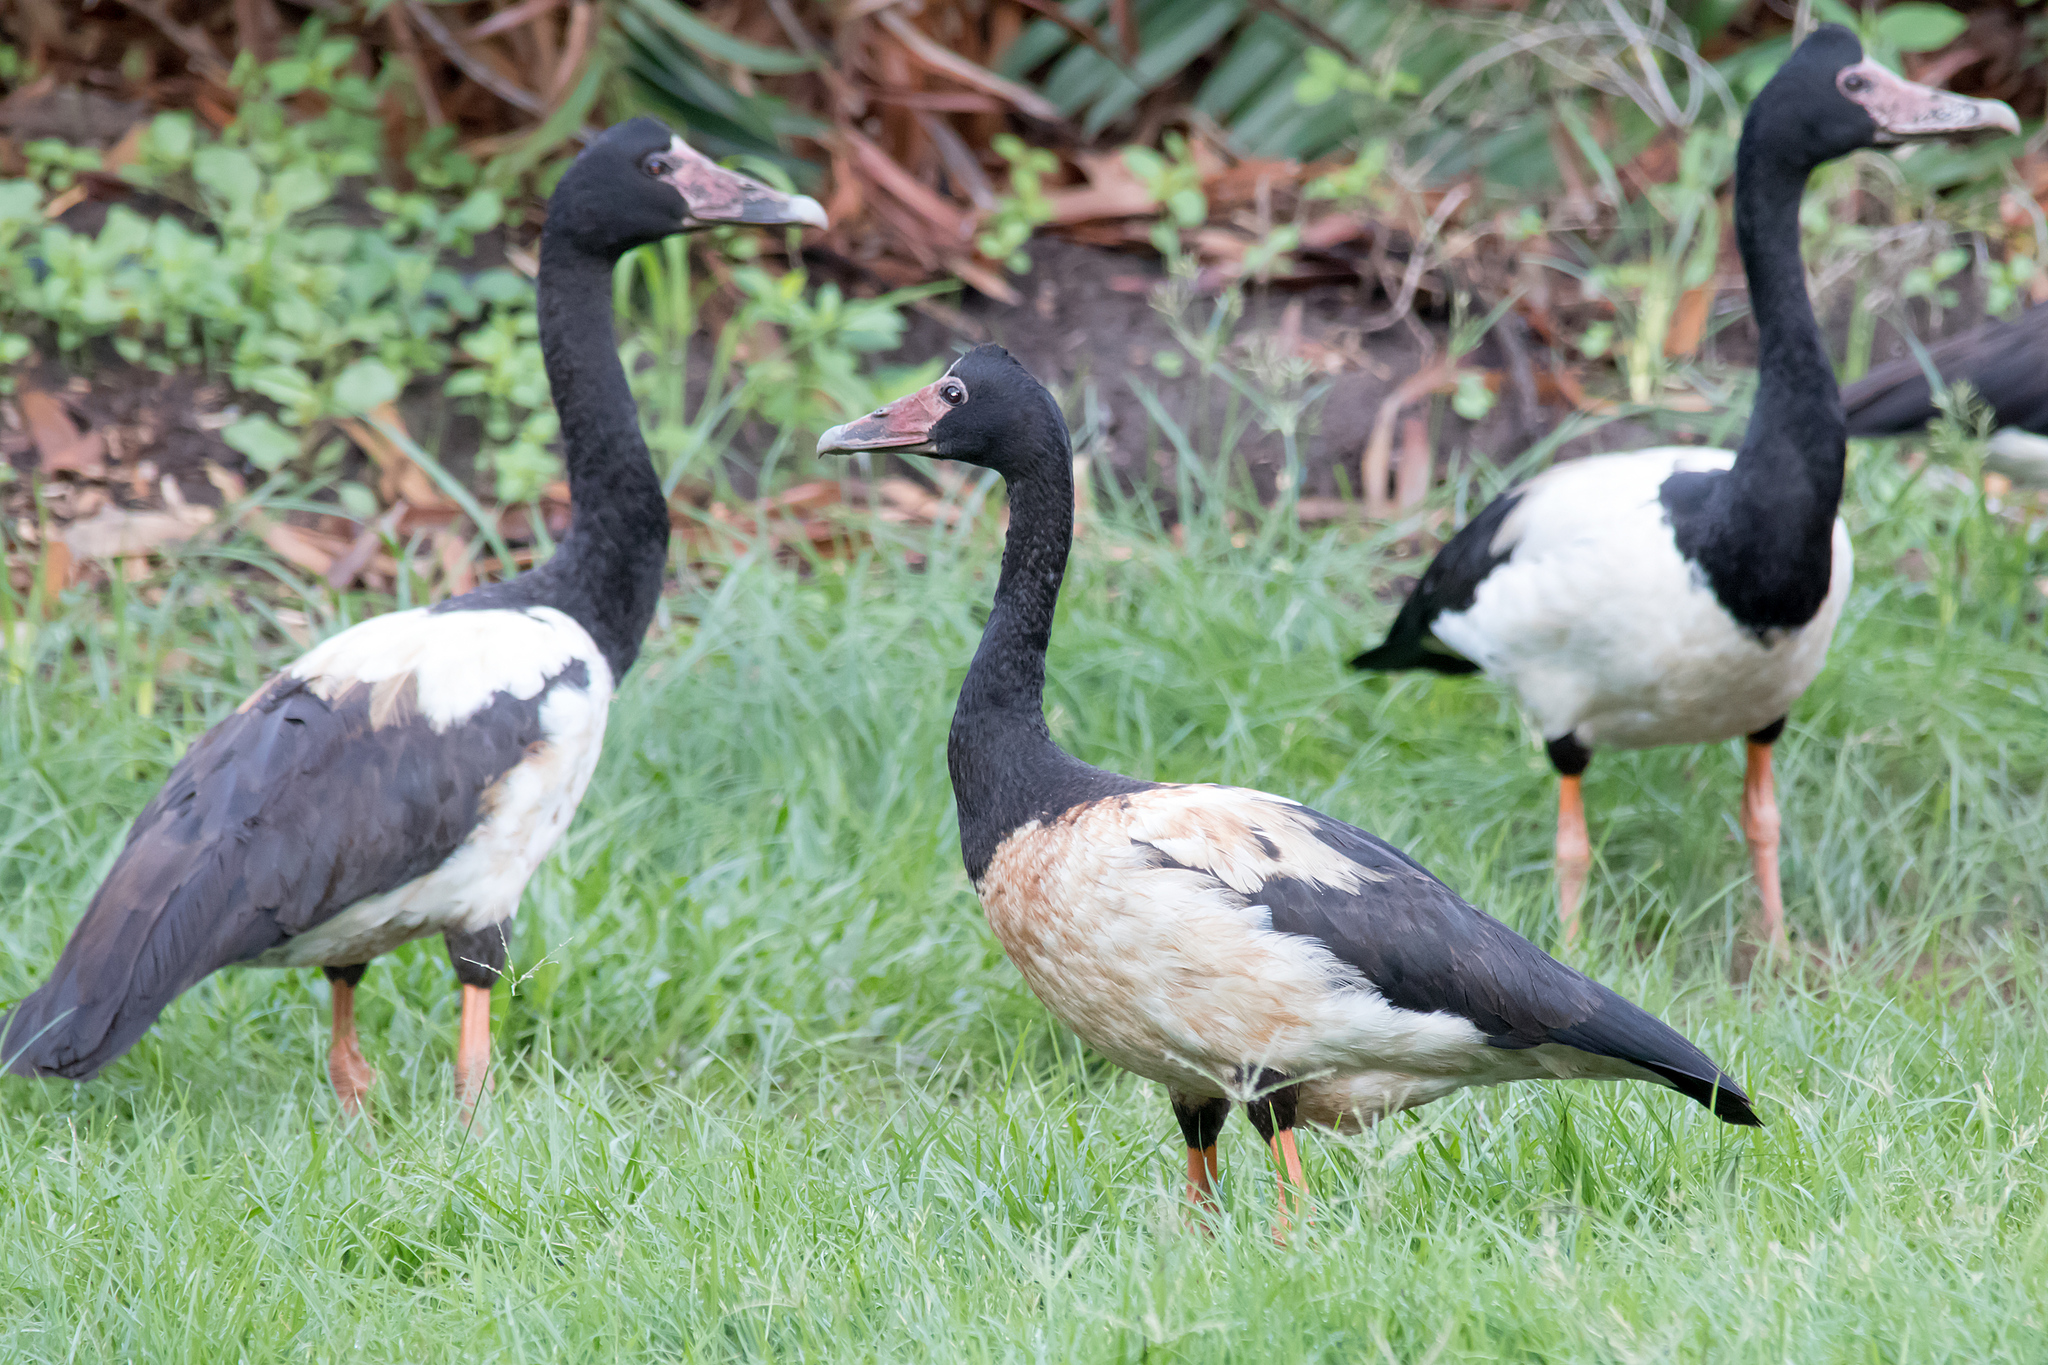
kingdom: Animalia
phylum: Chordata
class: Aves
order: Anseriformes
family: Anseranatidae
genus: Anseranas
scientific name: Anseranas semipalmata
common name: Magpie goose
